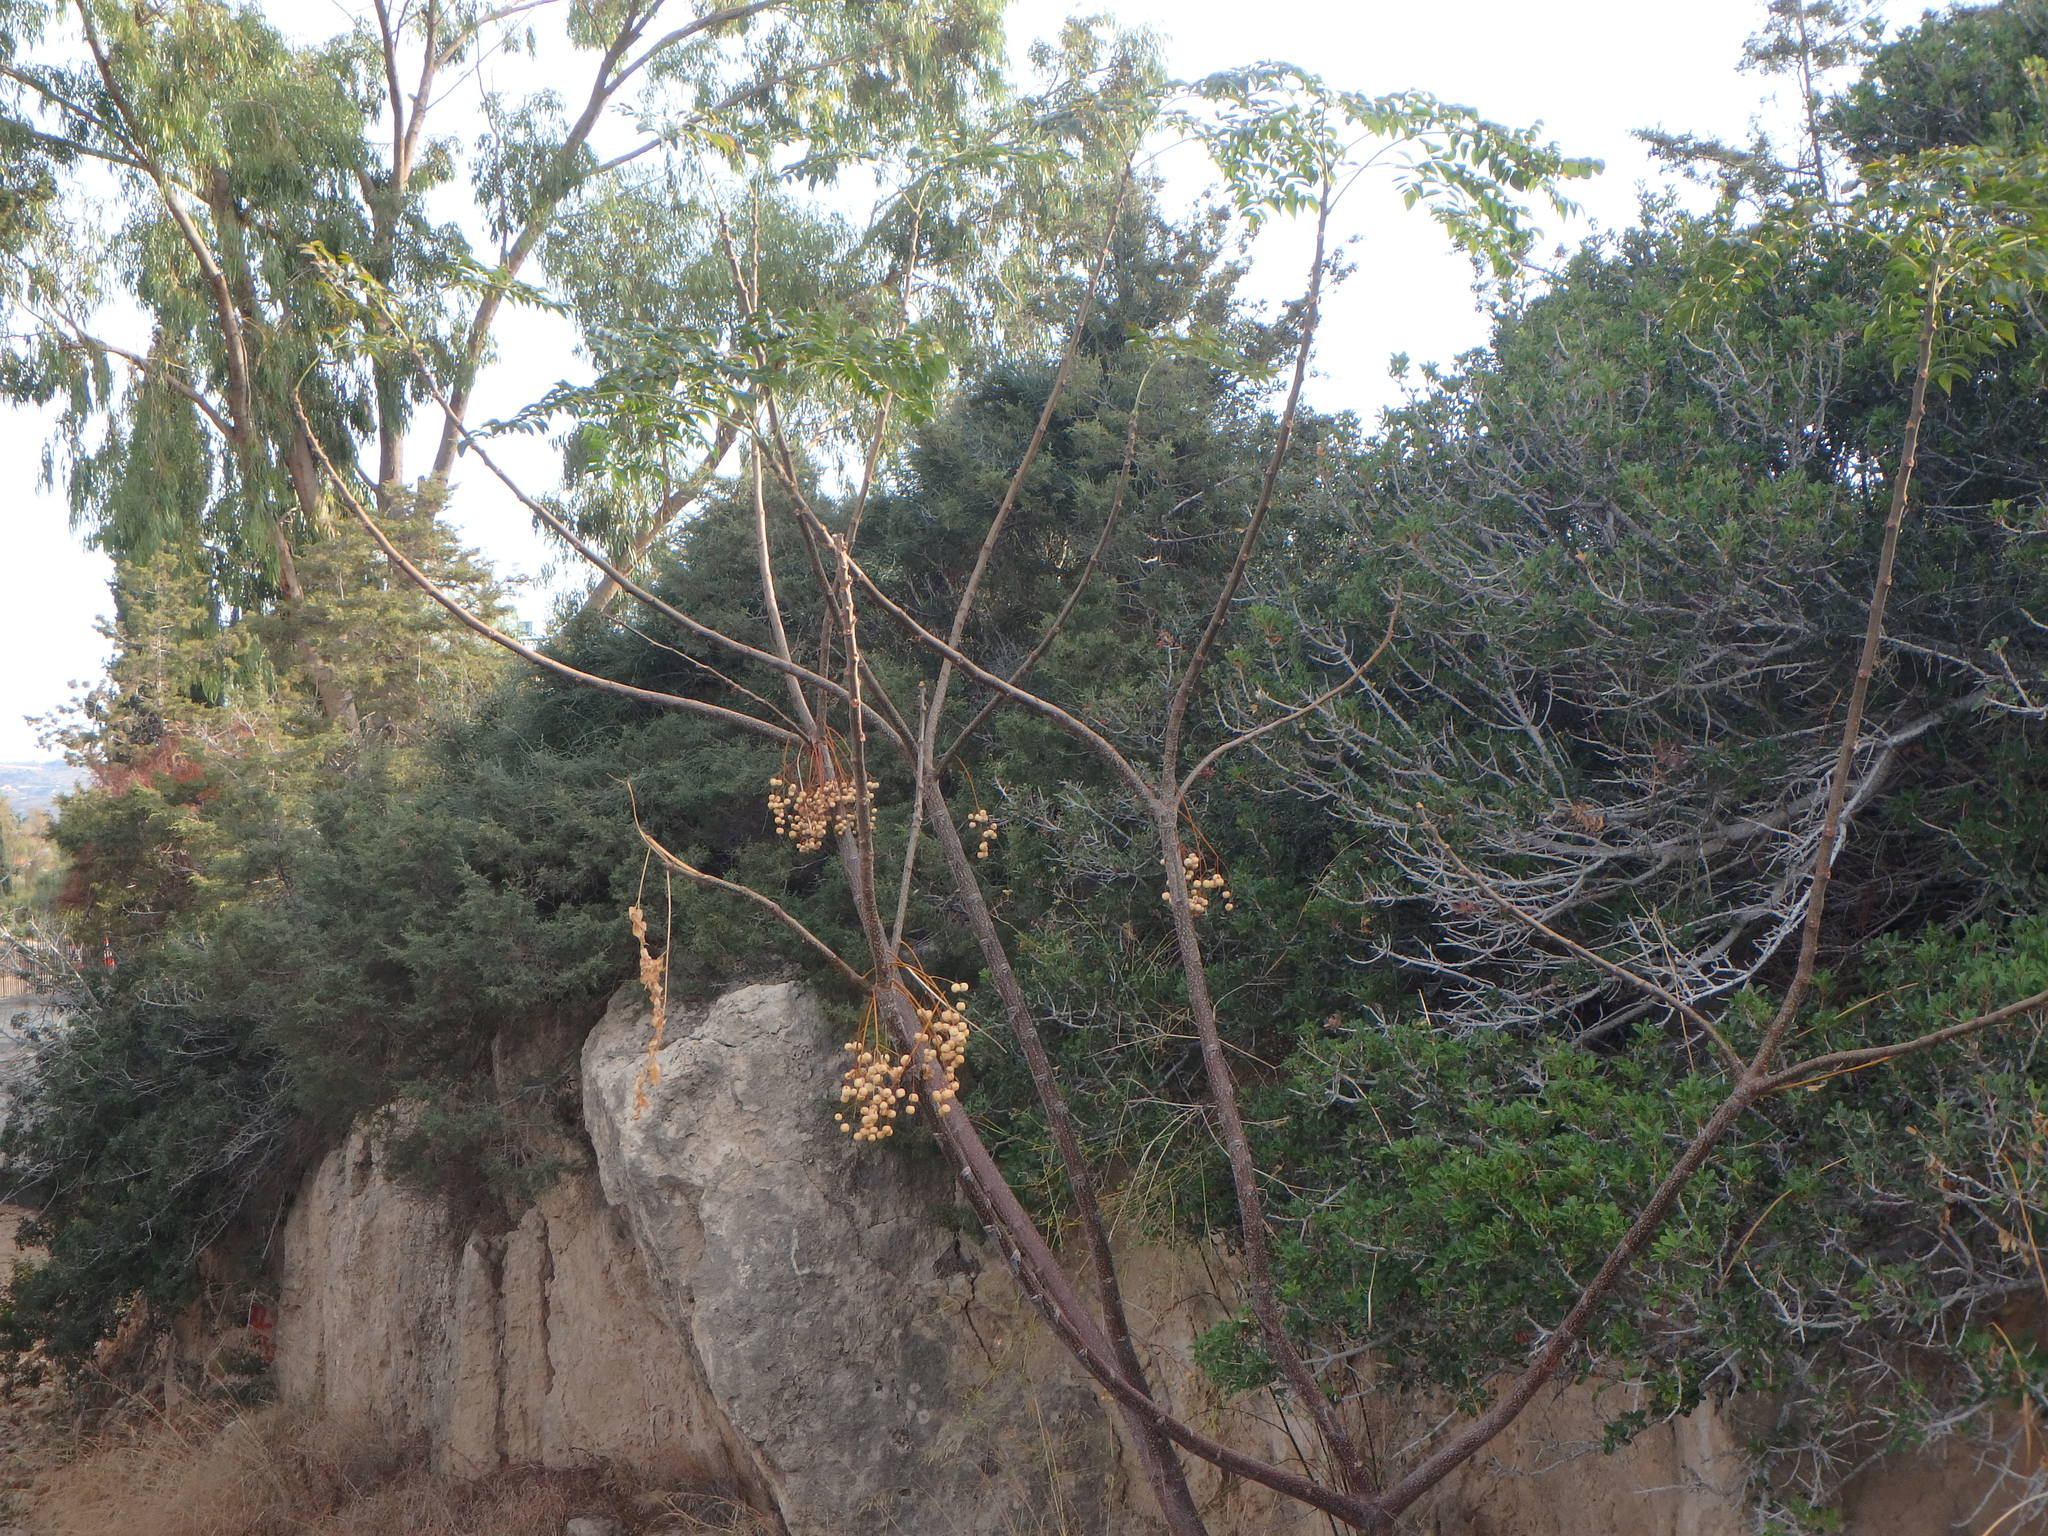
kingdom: Plantae
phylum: Tracheophyta
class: Magnoliopsida
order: Sapindales
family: Meliaceae
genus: Melia
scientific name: Melia azedarach
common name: Chinaberrytree
